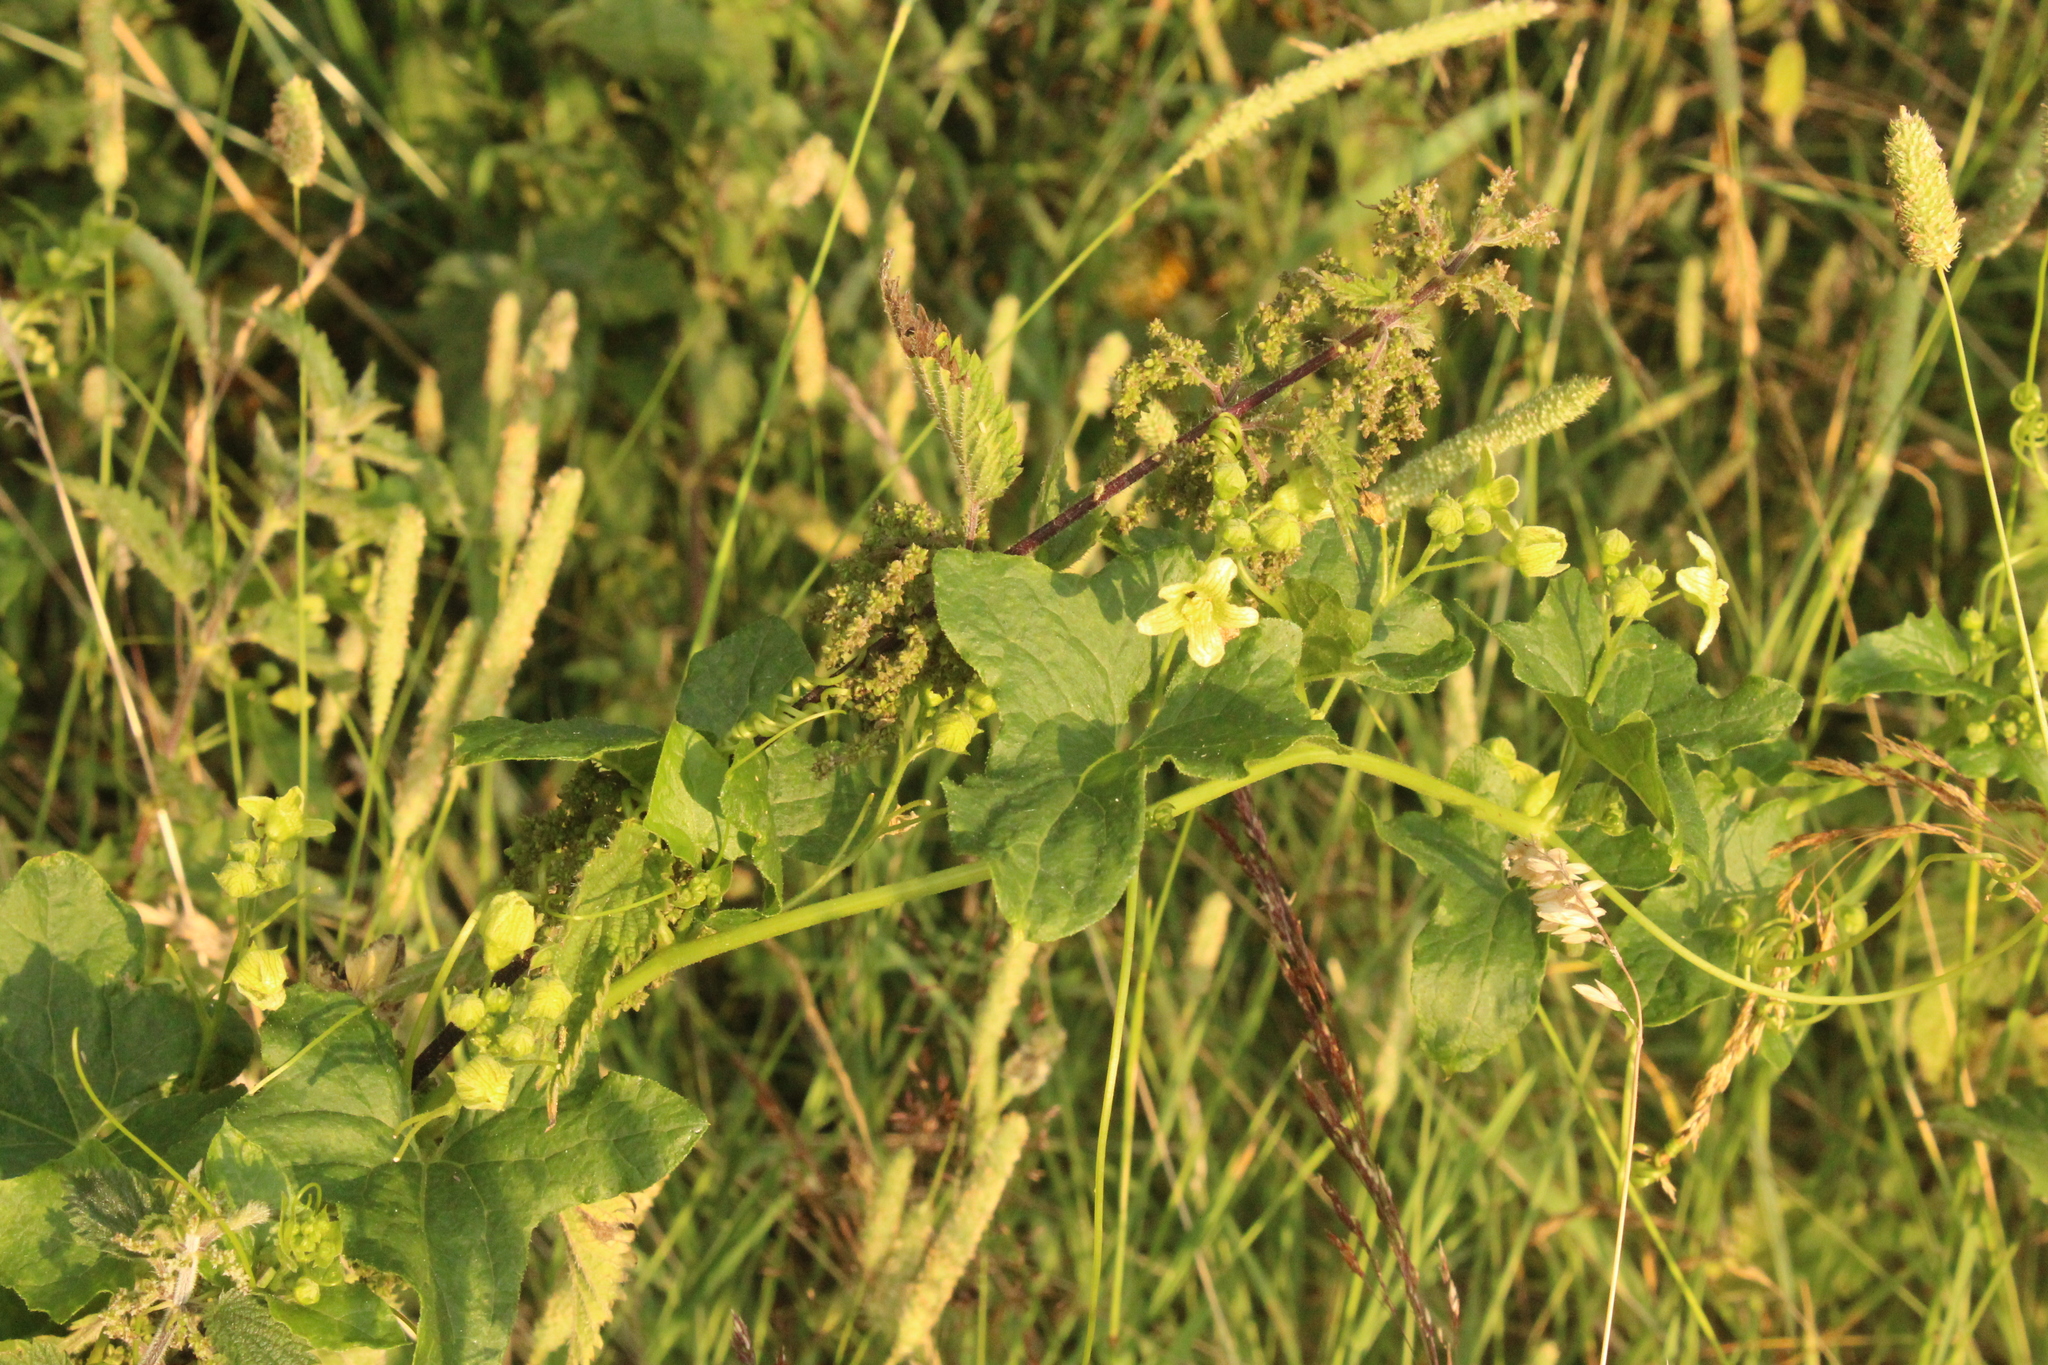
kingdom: Plantae
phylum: Tracheophyta
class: Magnoliopsida
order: Cucurbitales
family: Cucurbitaceae
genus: Bryonia
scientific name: Bryonia cretica
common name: Cretan bryony
